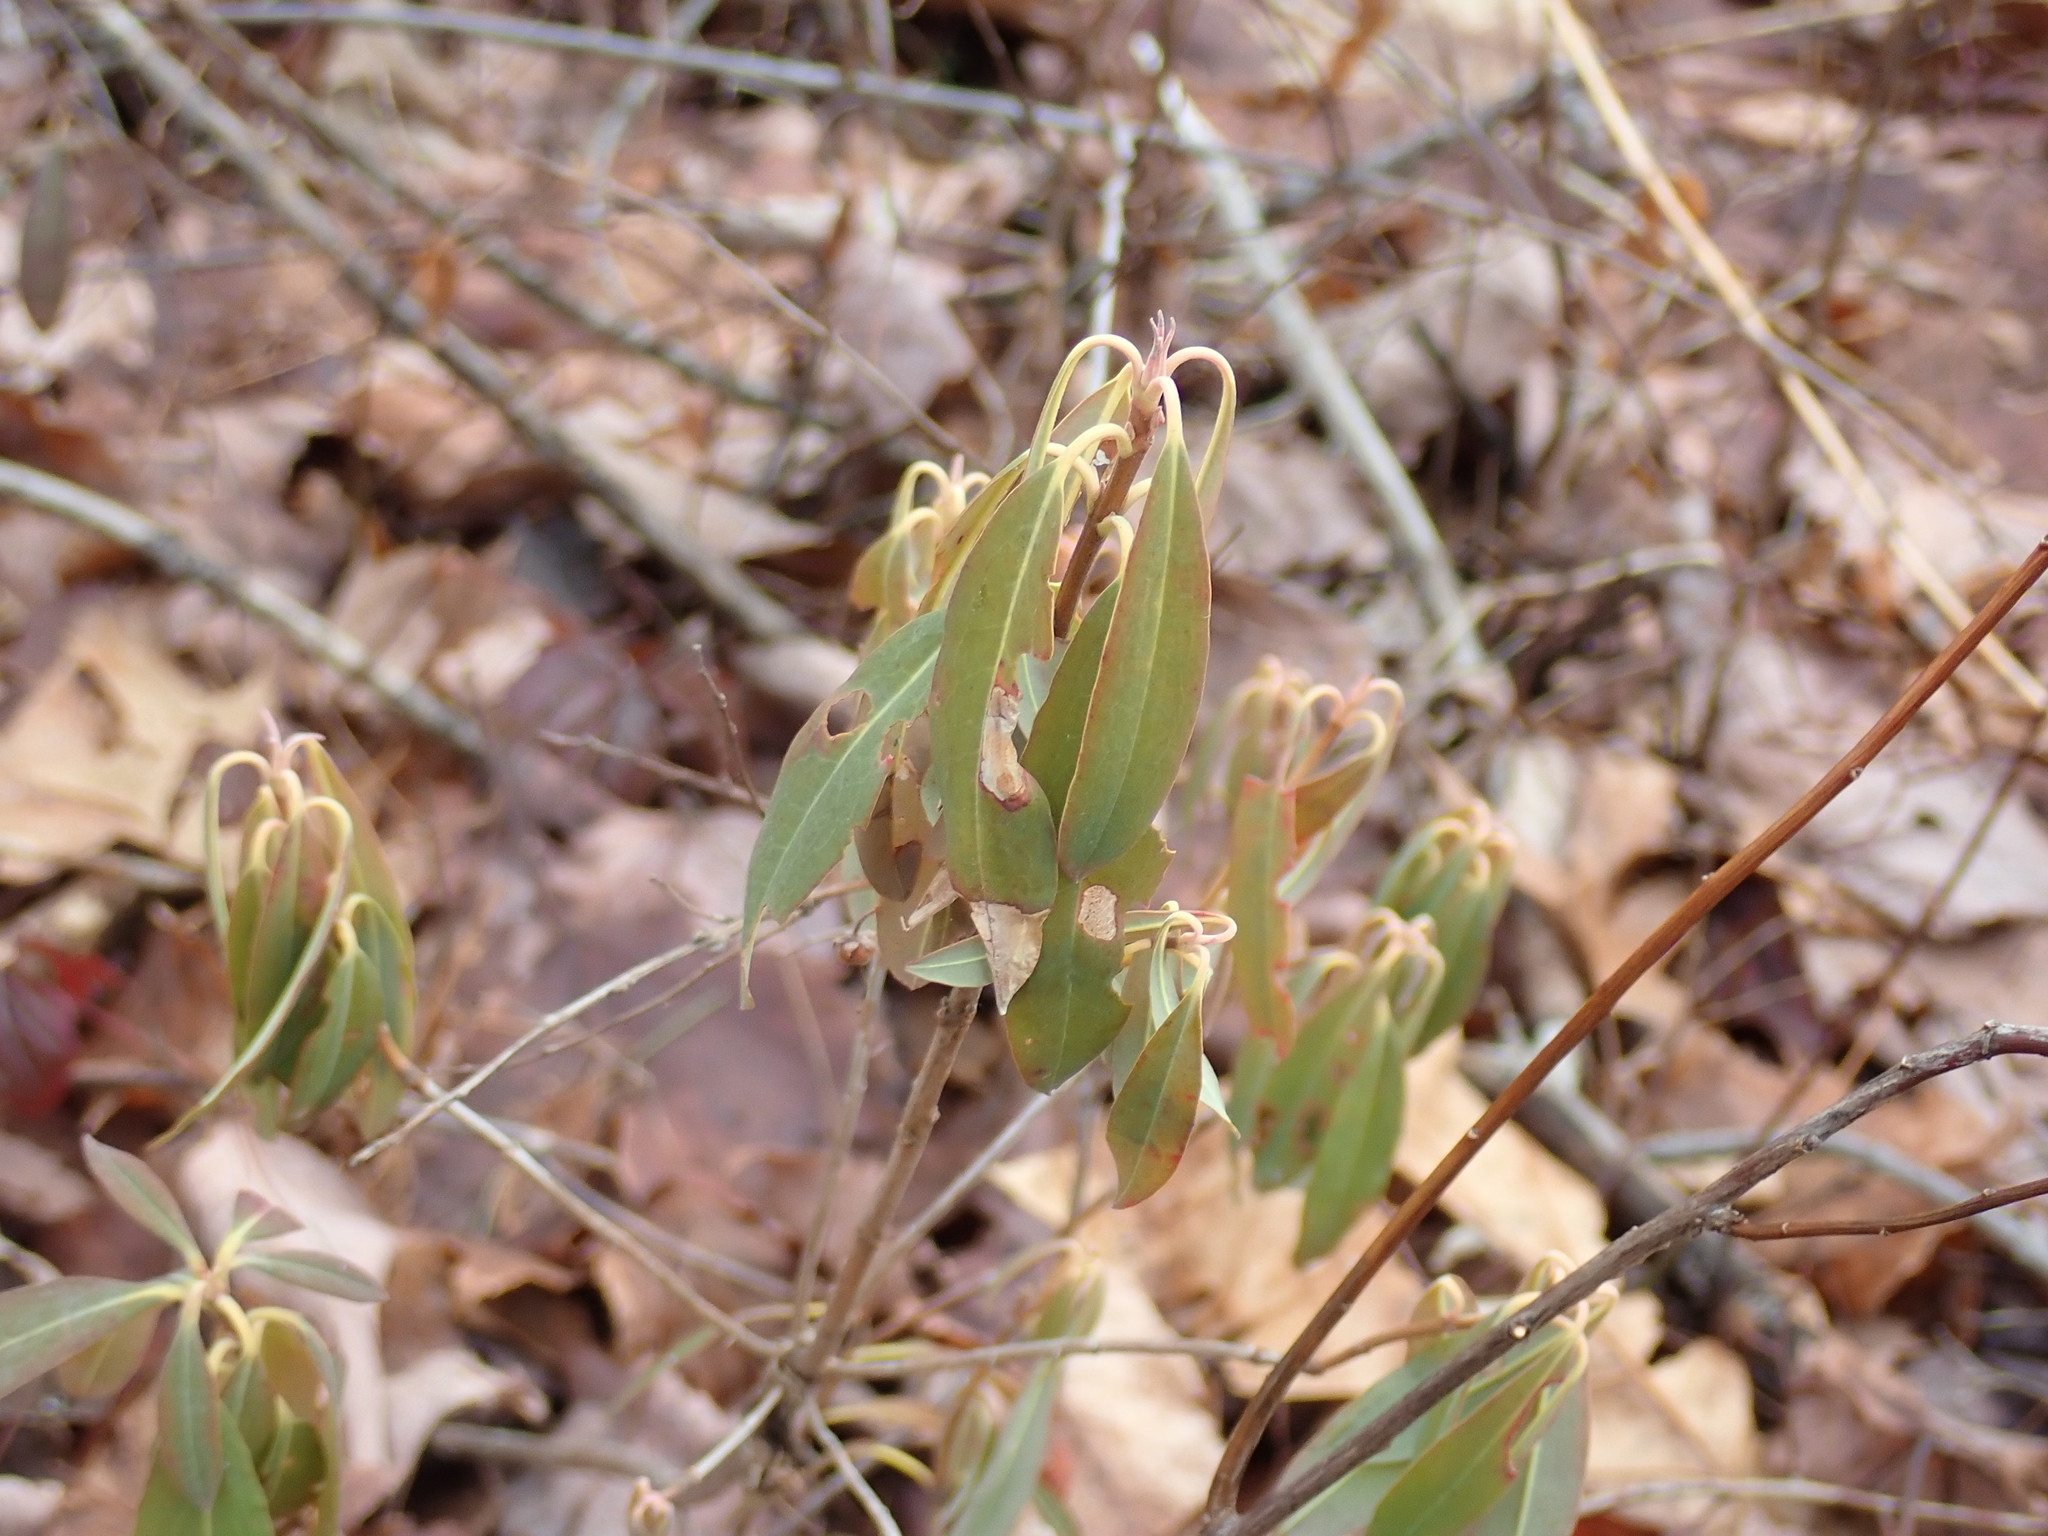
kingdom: Plantae
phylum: Tracheophyta
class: Magnoliopsida
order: Ericales
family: Ericaceae
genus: Kalmia
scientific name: Kalmia angustifolia
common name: Sheep-laurel
